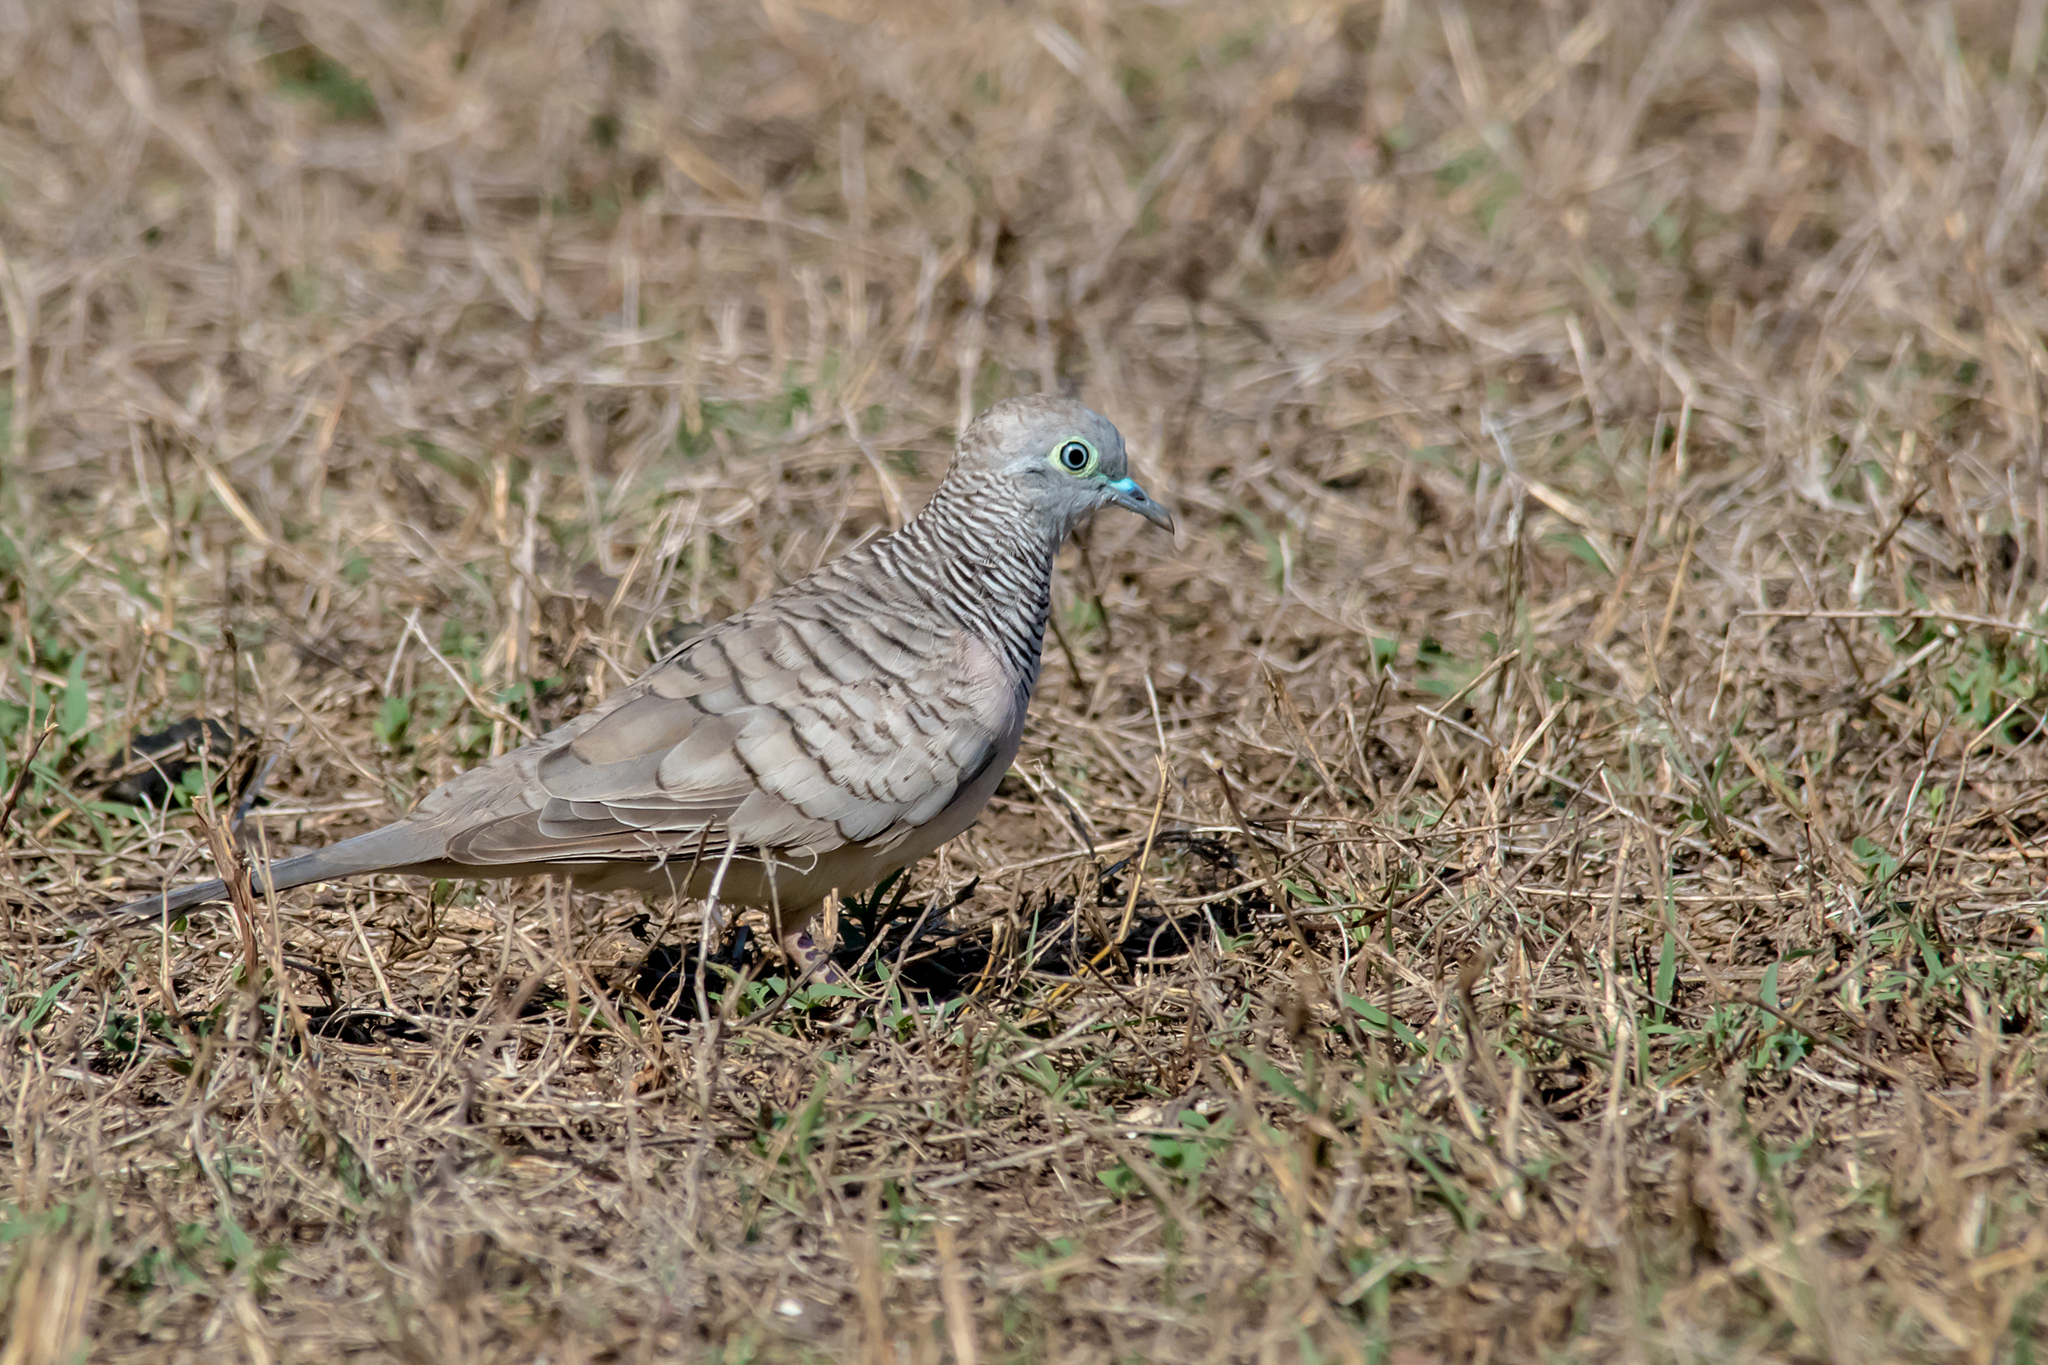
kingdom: Animalia
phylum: Chordata
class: Aves
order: Columbiformes
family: Columbidae
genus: Geopelia
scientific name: Geopelia placida
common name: Peaceful dove
